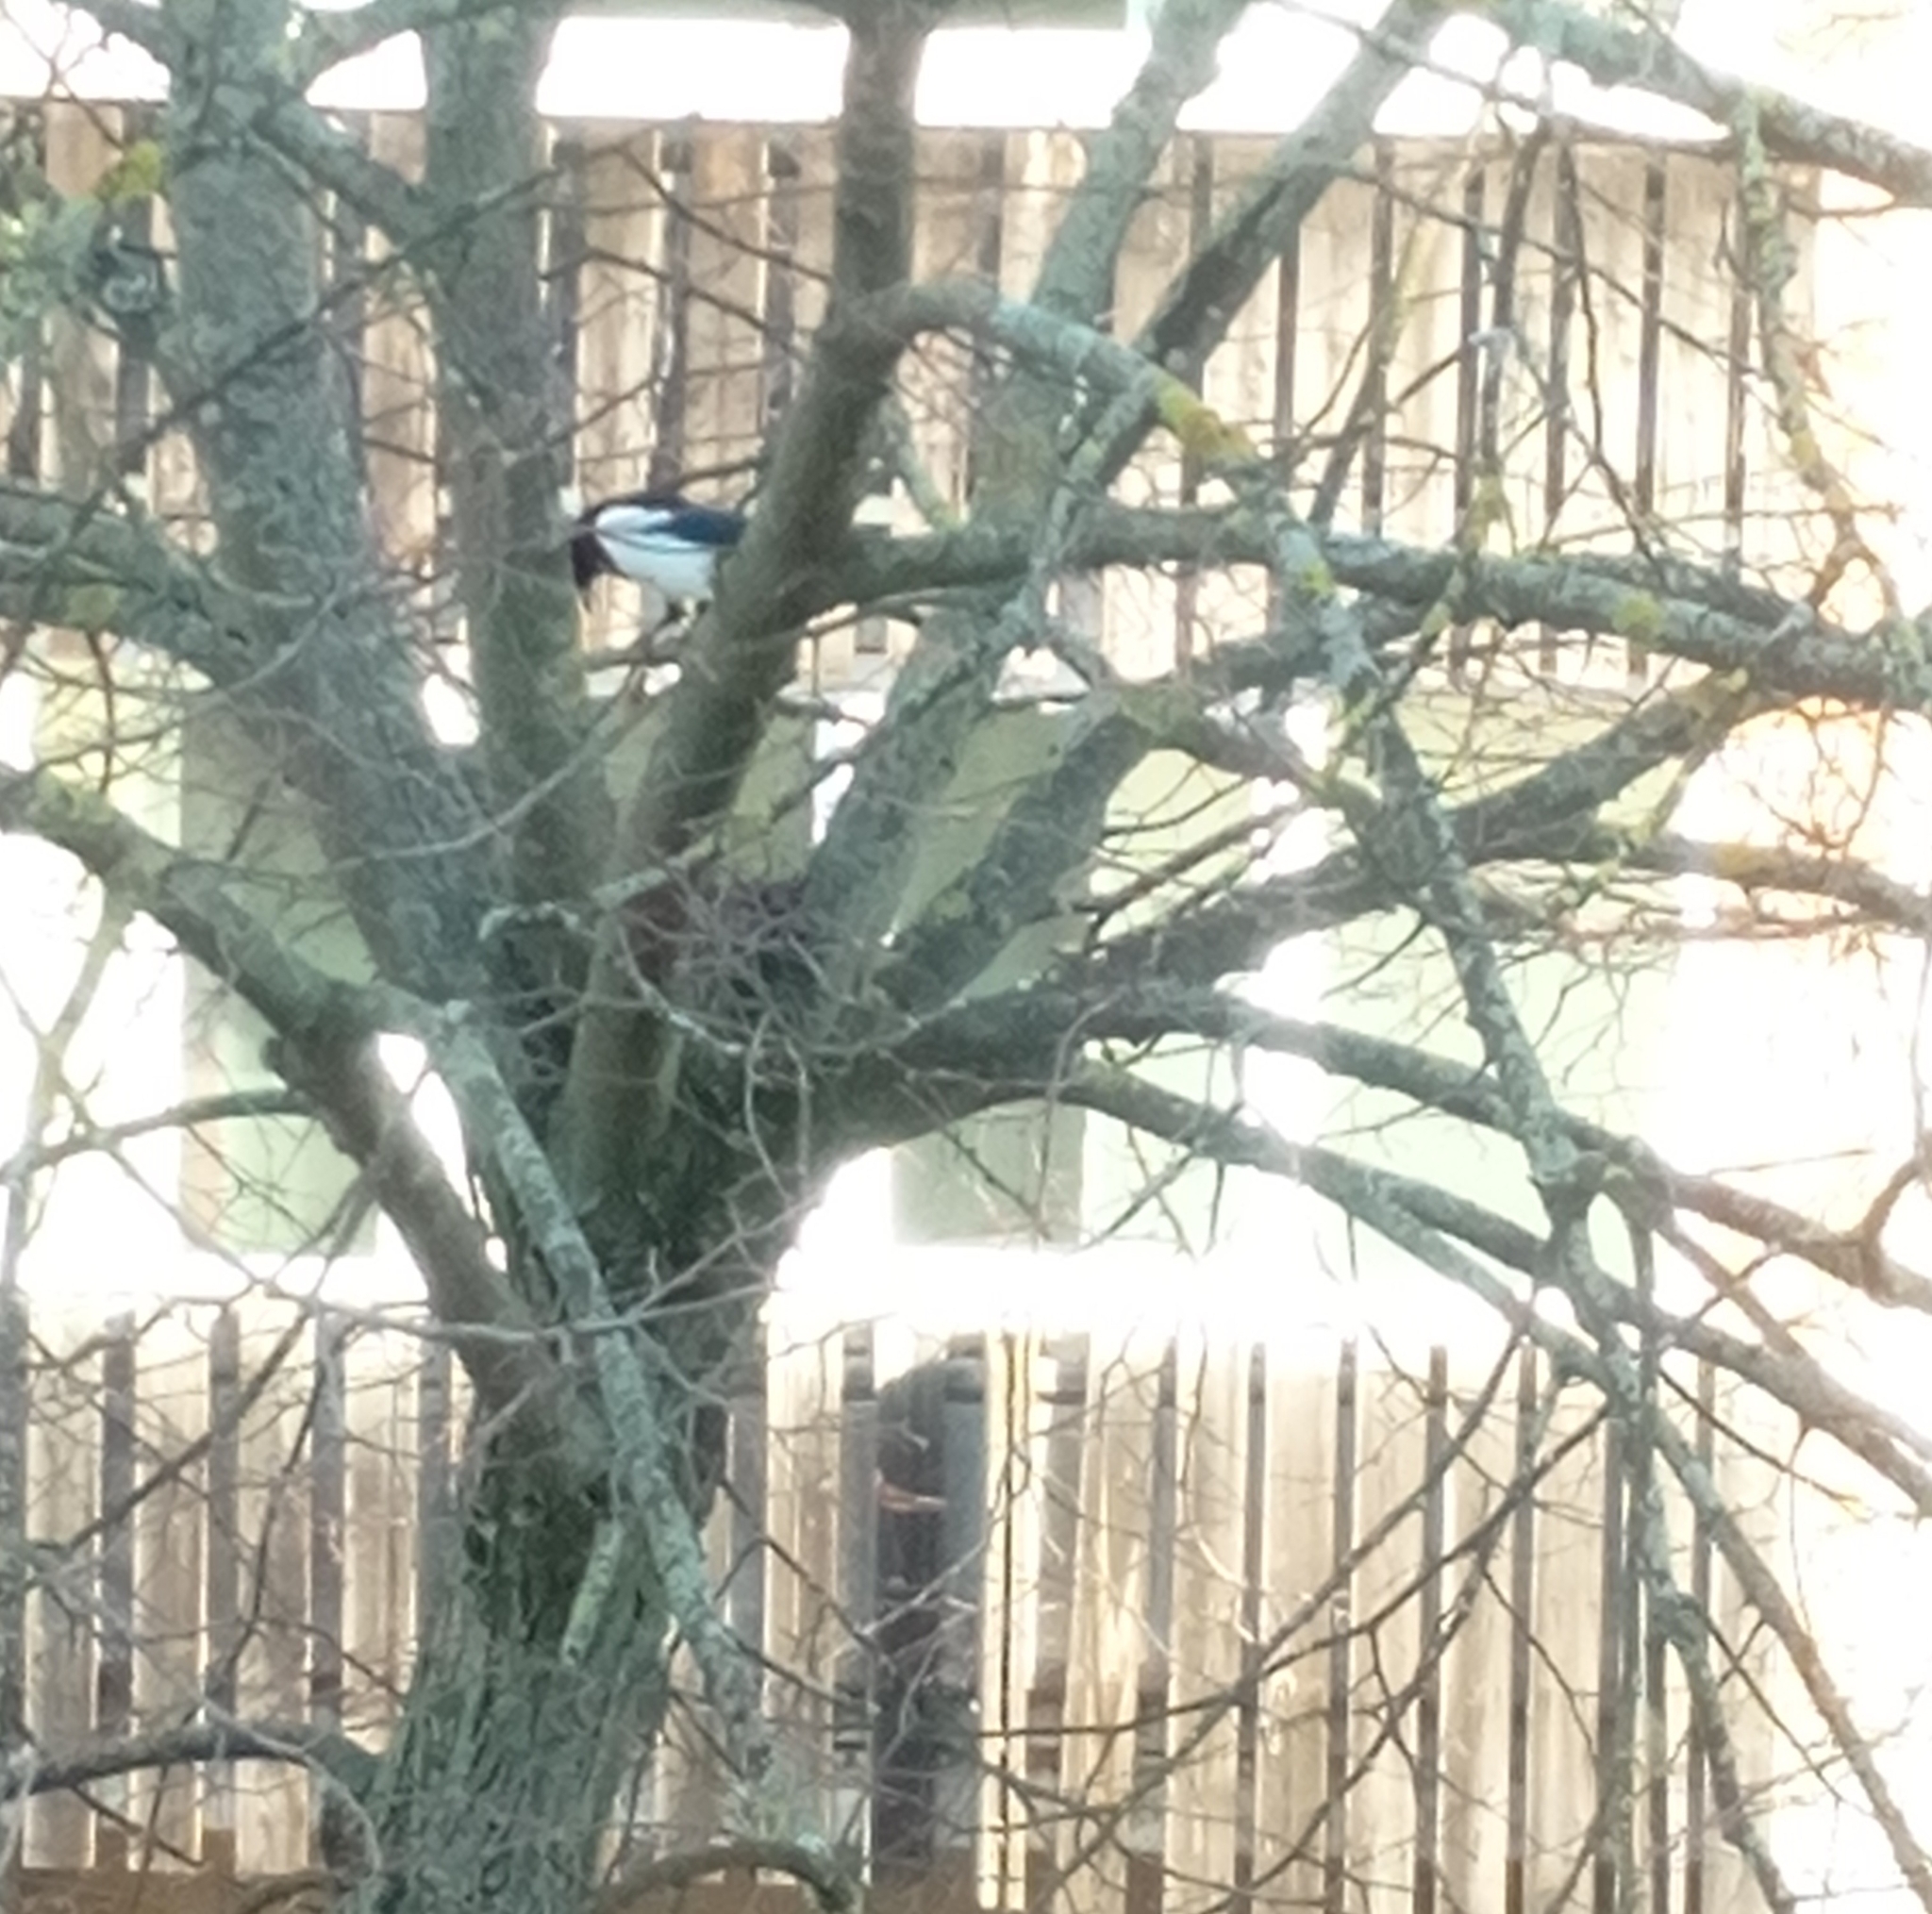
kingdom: Animalia
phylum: Chordata
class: Aves
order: Passeriformes
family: Corvidae
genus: Pica
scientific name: Pica pica
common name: Eurasian magpie
